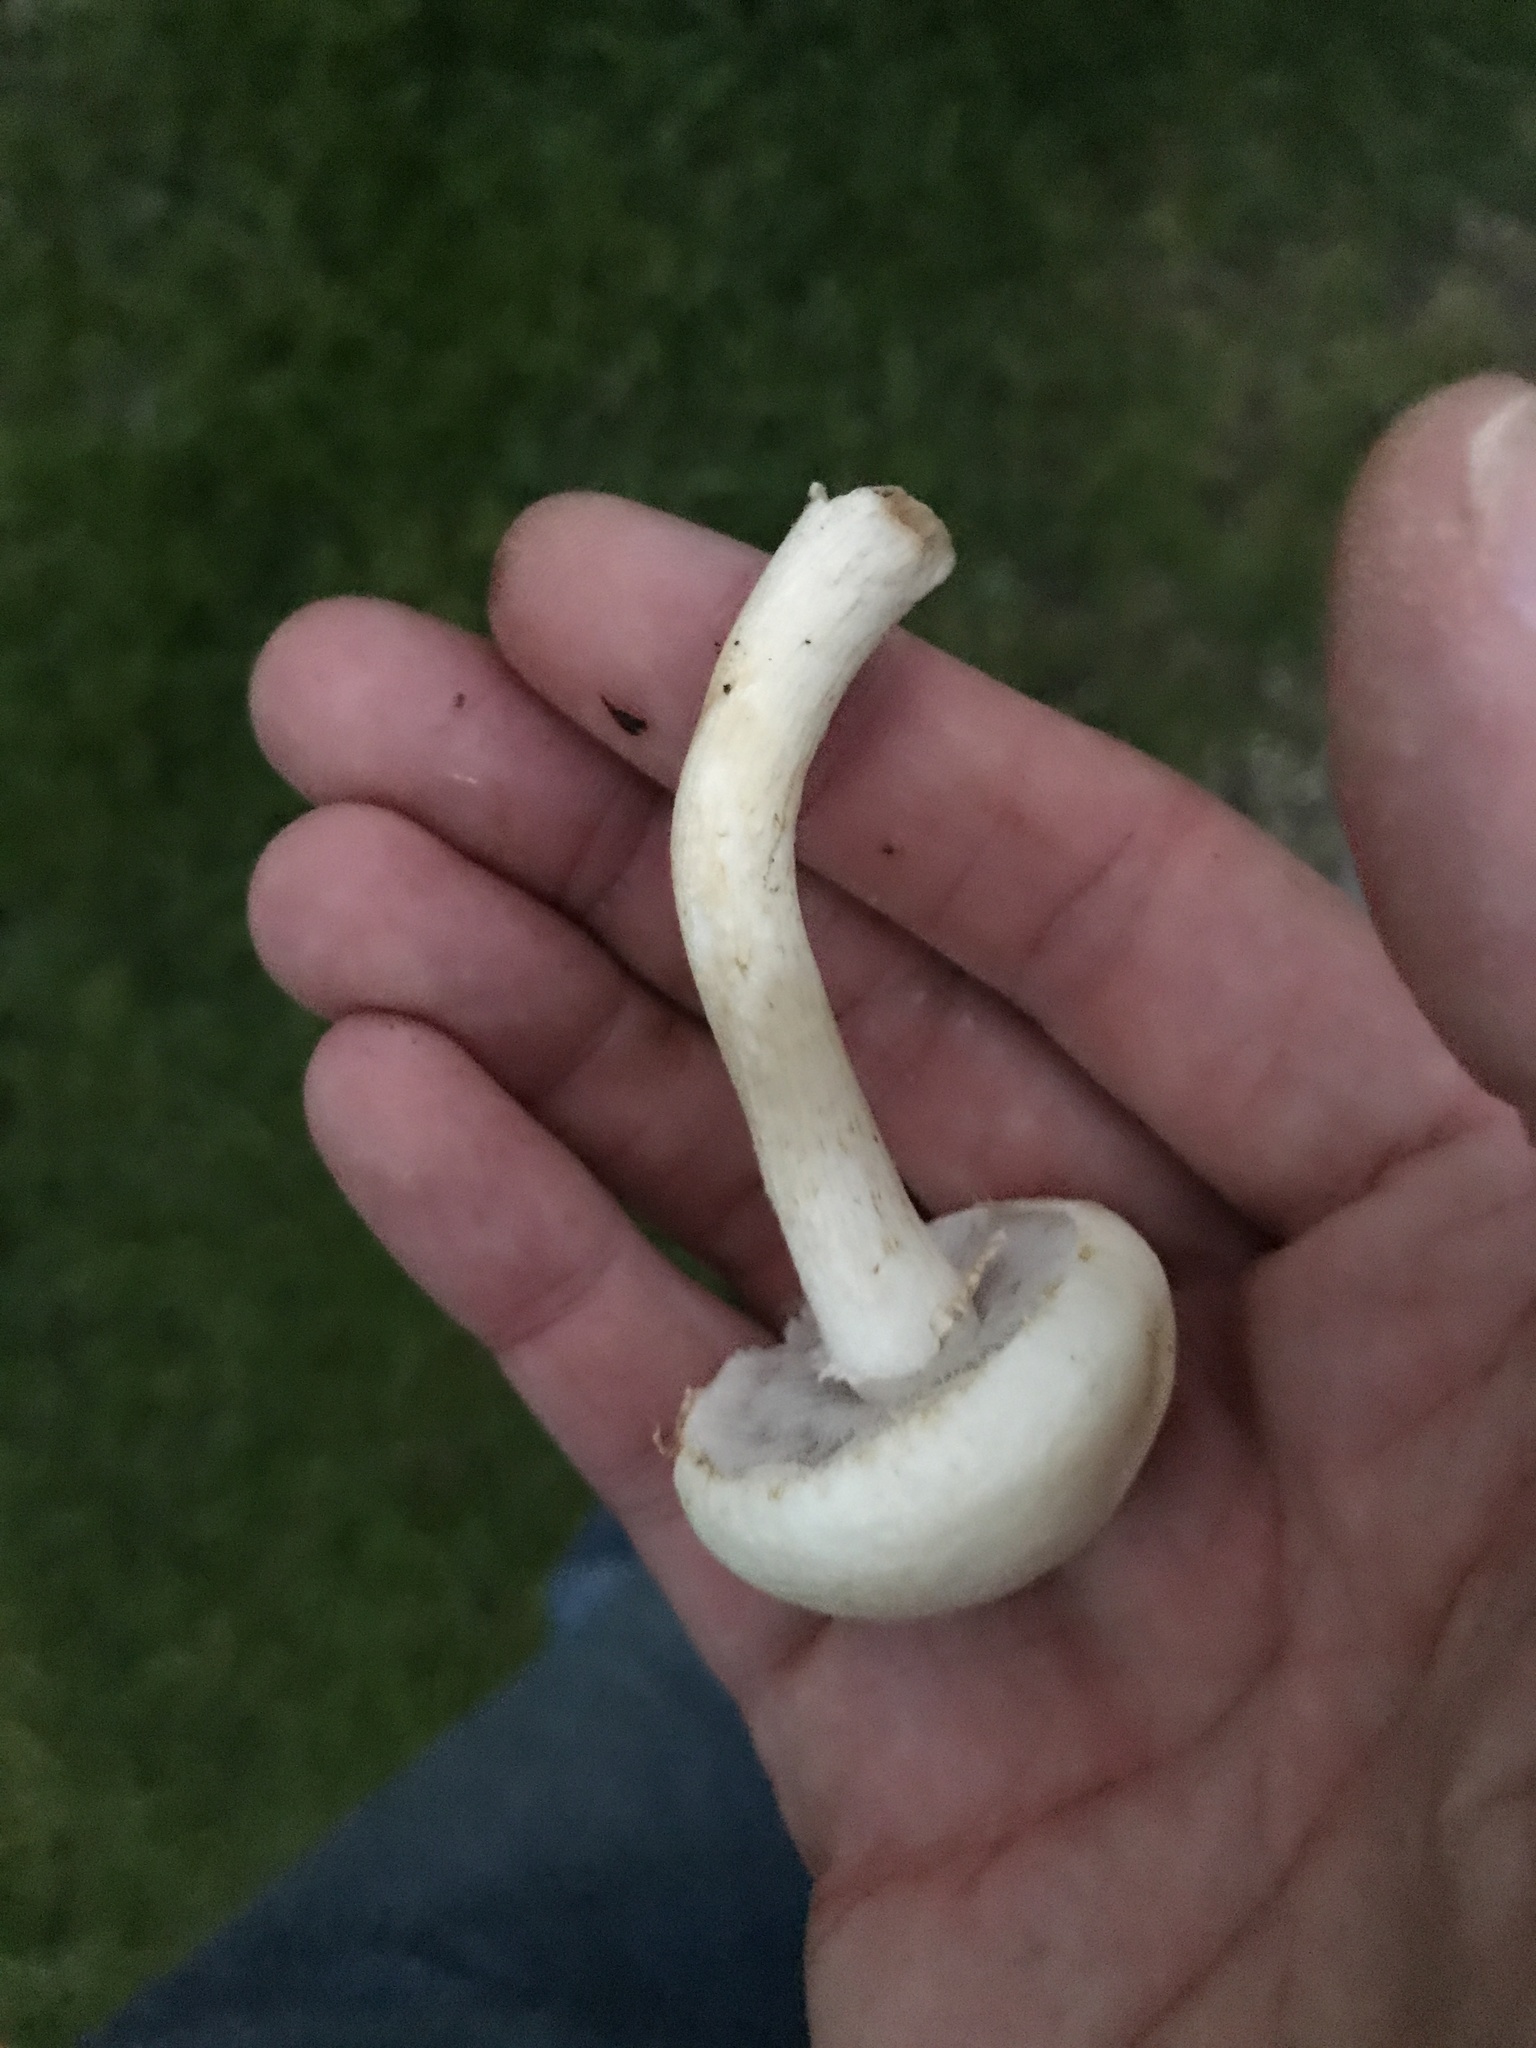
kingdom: Fungi
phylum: Basidiomycota
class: Agaricomycetes
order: Agaricales
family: Strophariaceae
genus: Agrocybe
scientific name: Agrocybe molesta
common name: Bearded fieldcap
